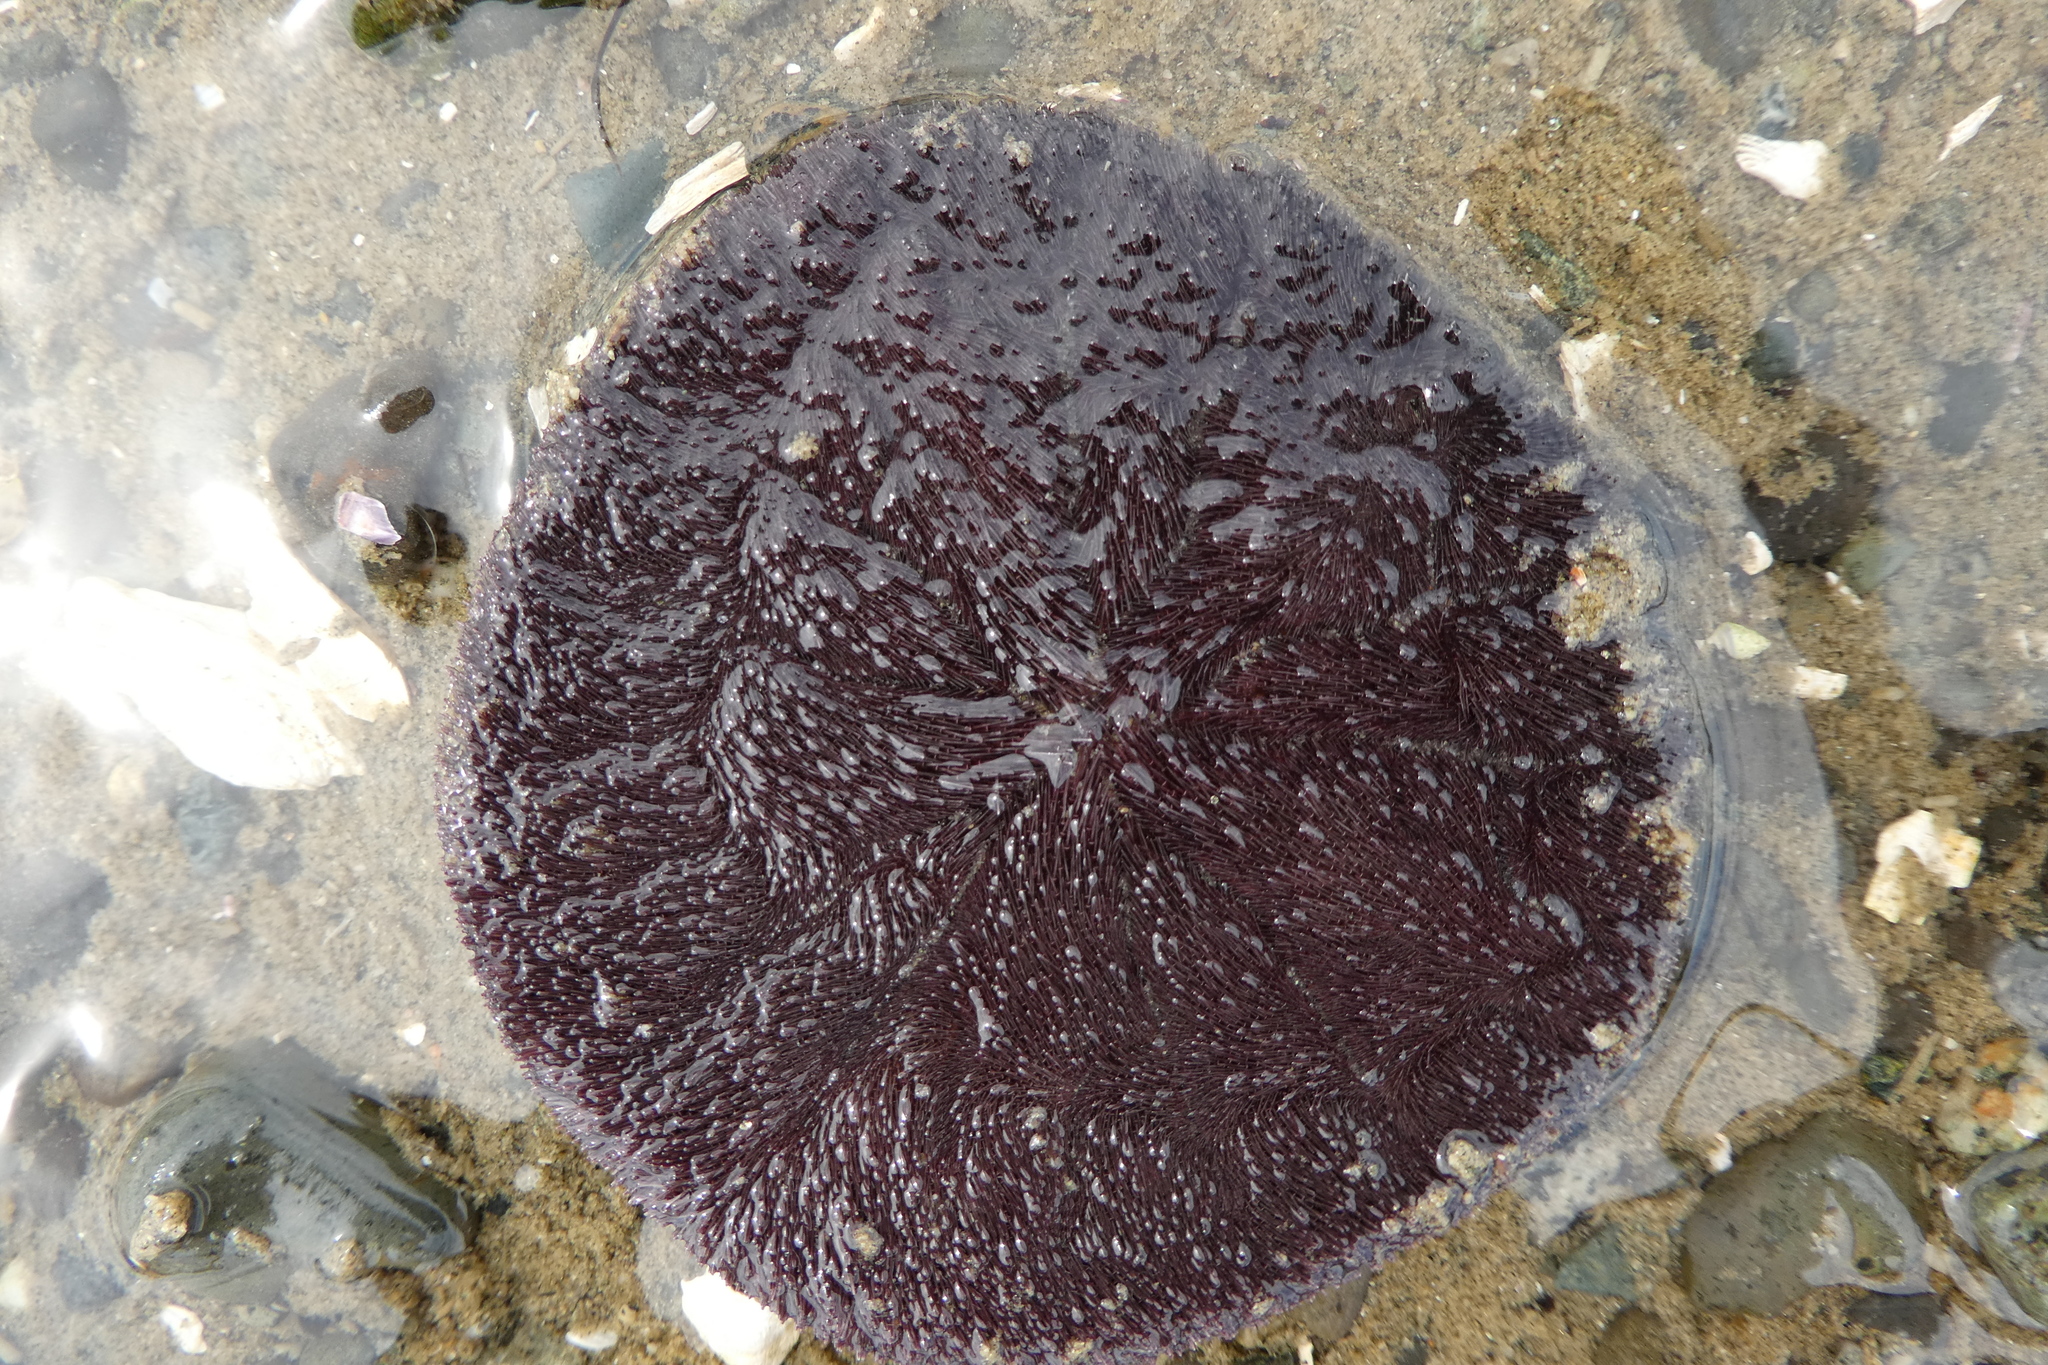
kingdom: Animalia
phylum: Echinodermata
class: Echinoidea
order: Echinolampadacea
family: Dendrasteridae
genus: Dendraster
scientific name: Dendraster excentricus
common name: Eccentric sand dollar sea urchin
